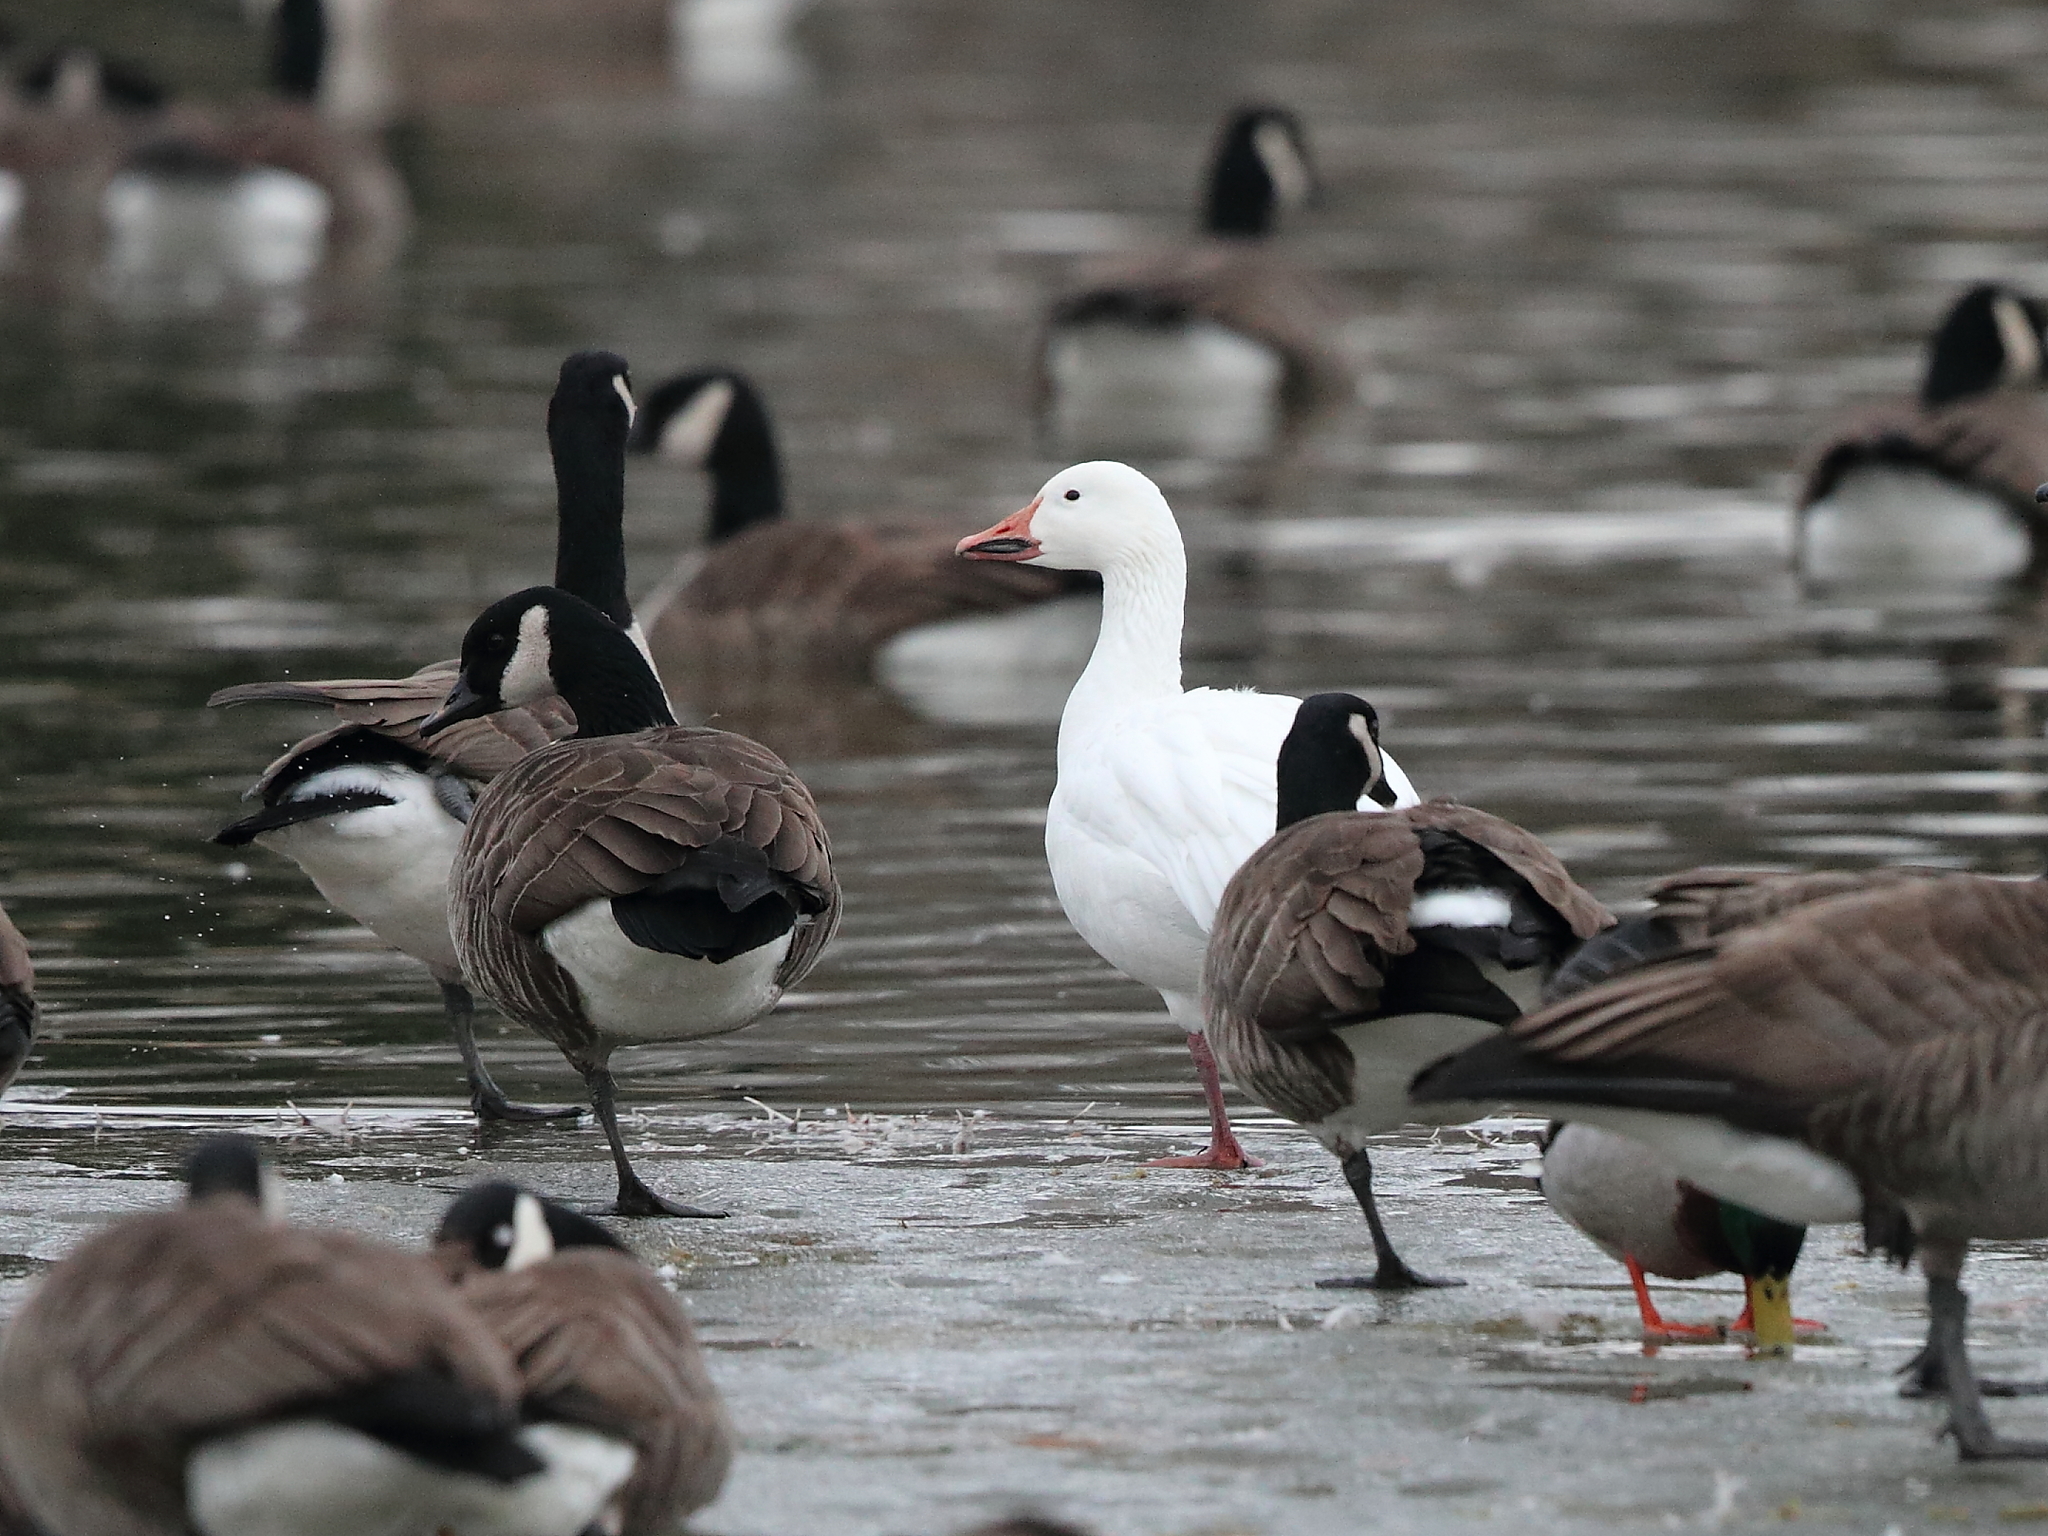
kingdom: Animalia
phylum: Chordata
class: Aves
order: Anseriformes
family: Anatidae
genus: Anser
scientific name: Anser caerulescens
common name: Snow goose
